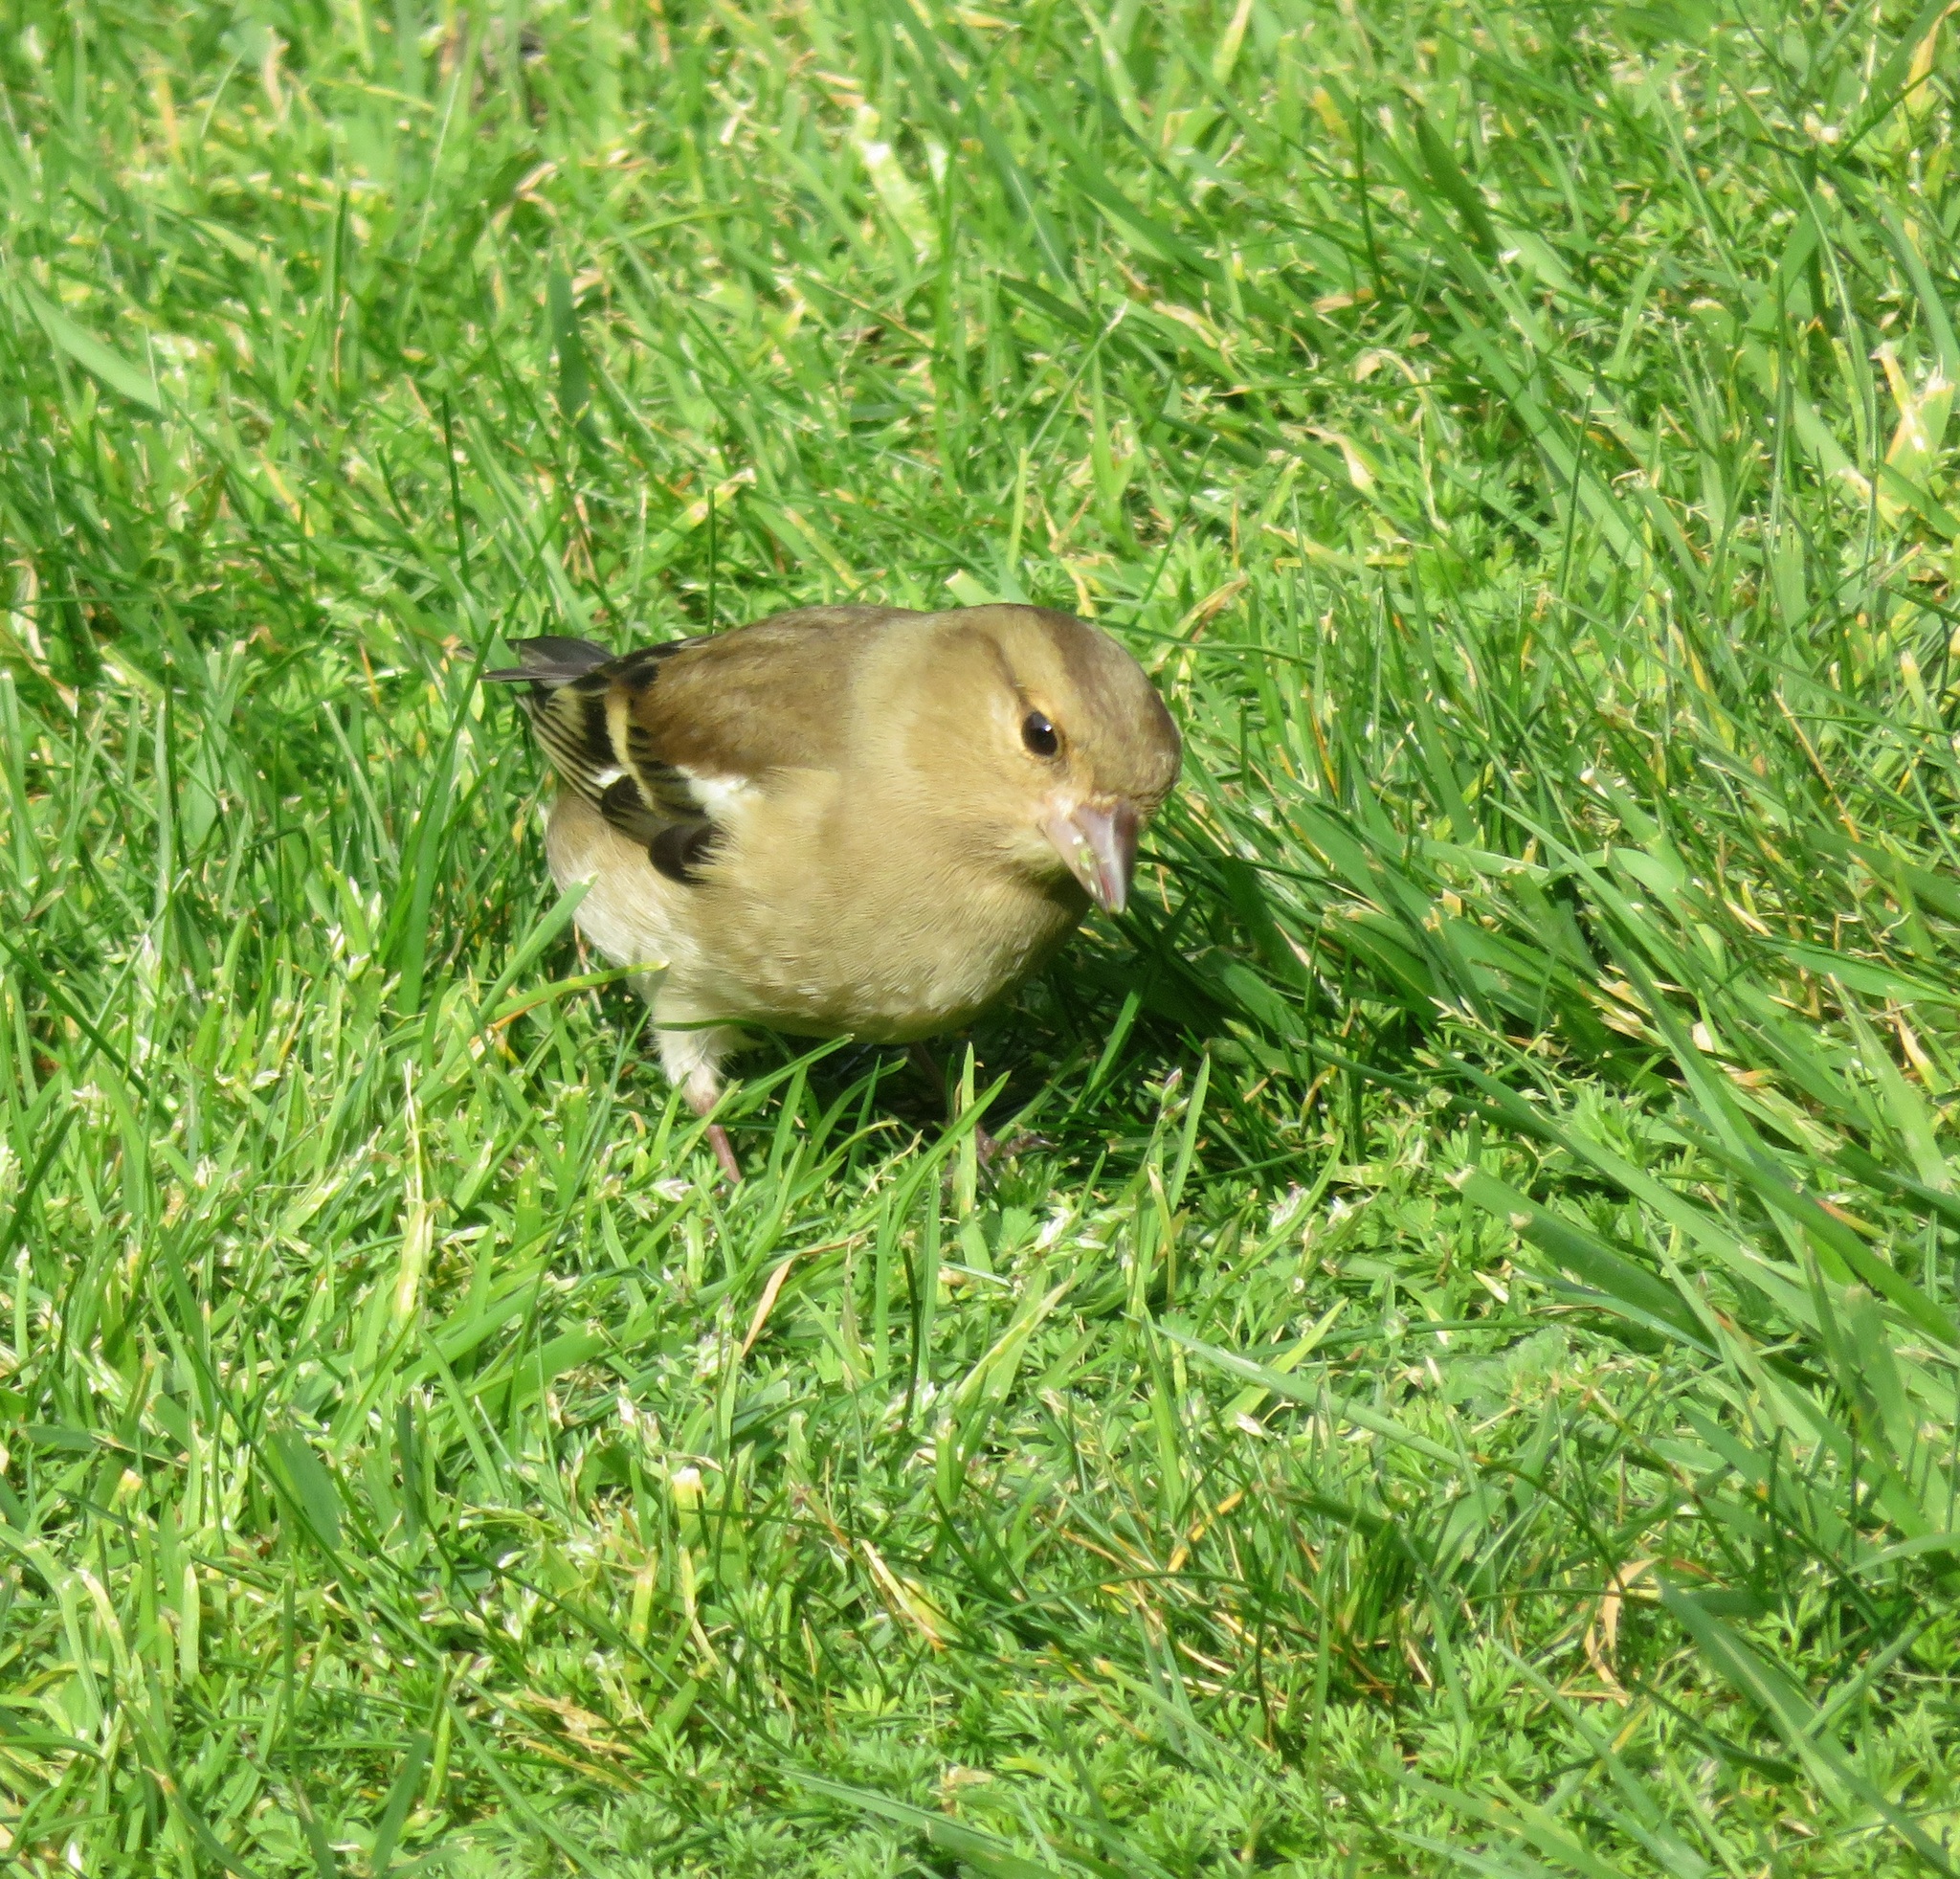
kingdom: Animalia
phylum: Chordata
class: Aves
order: Passeriformes
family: Fringillidae
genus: Fringilla
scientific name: Fringilla coelebs
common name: Common chaffinch
